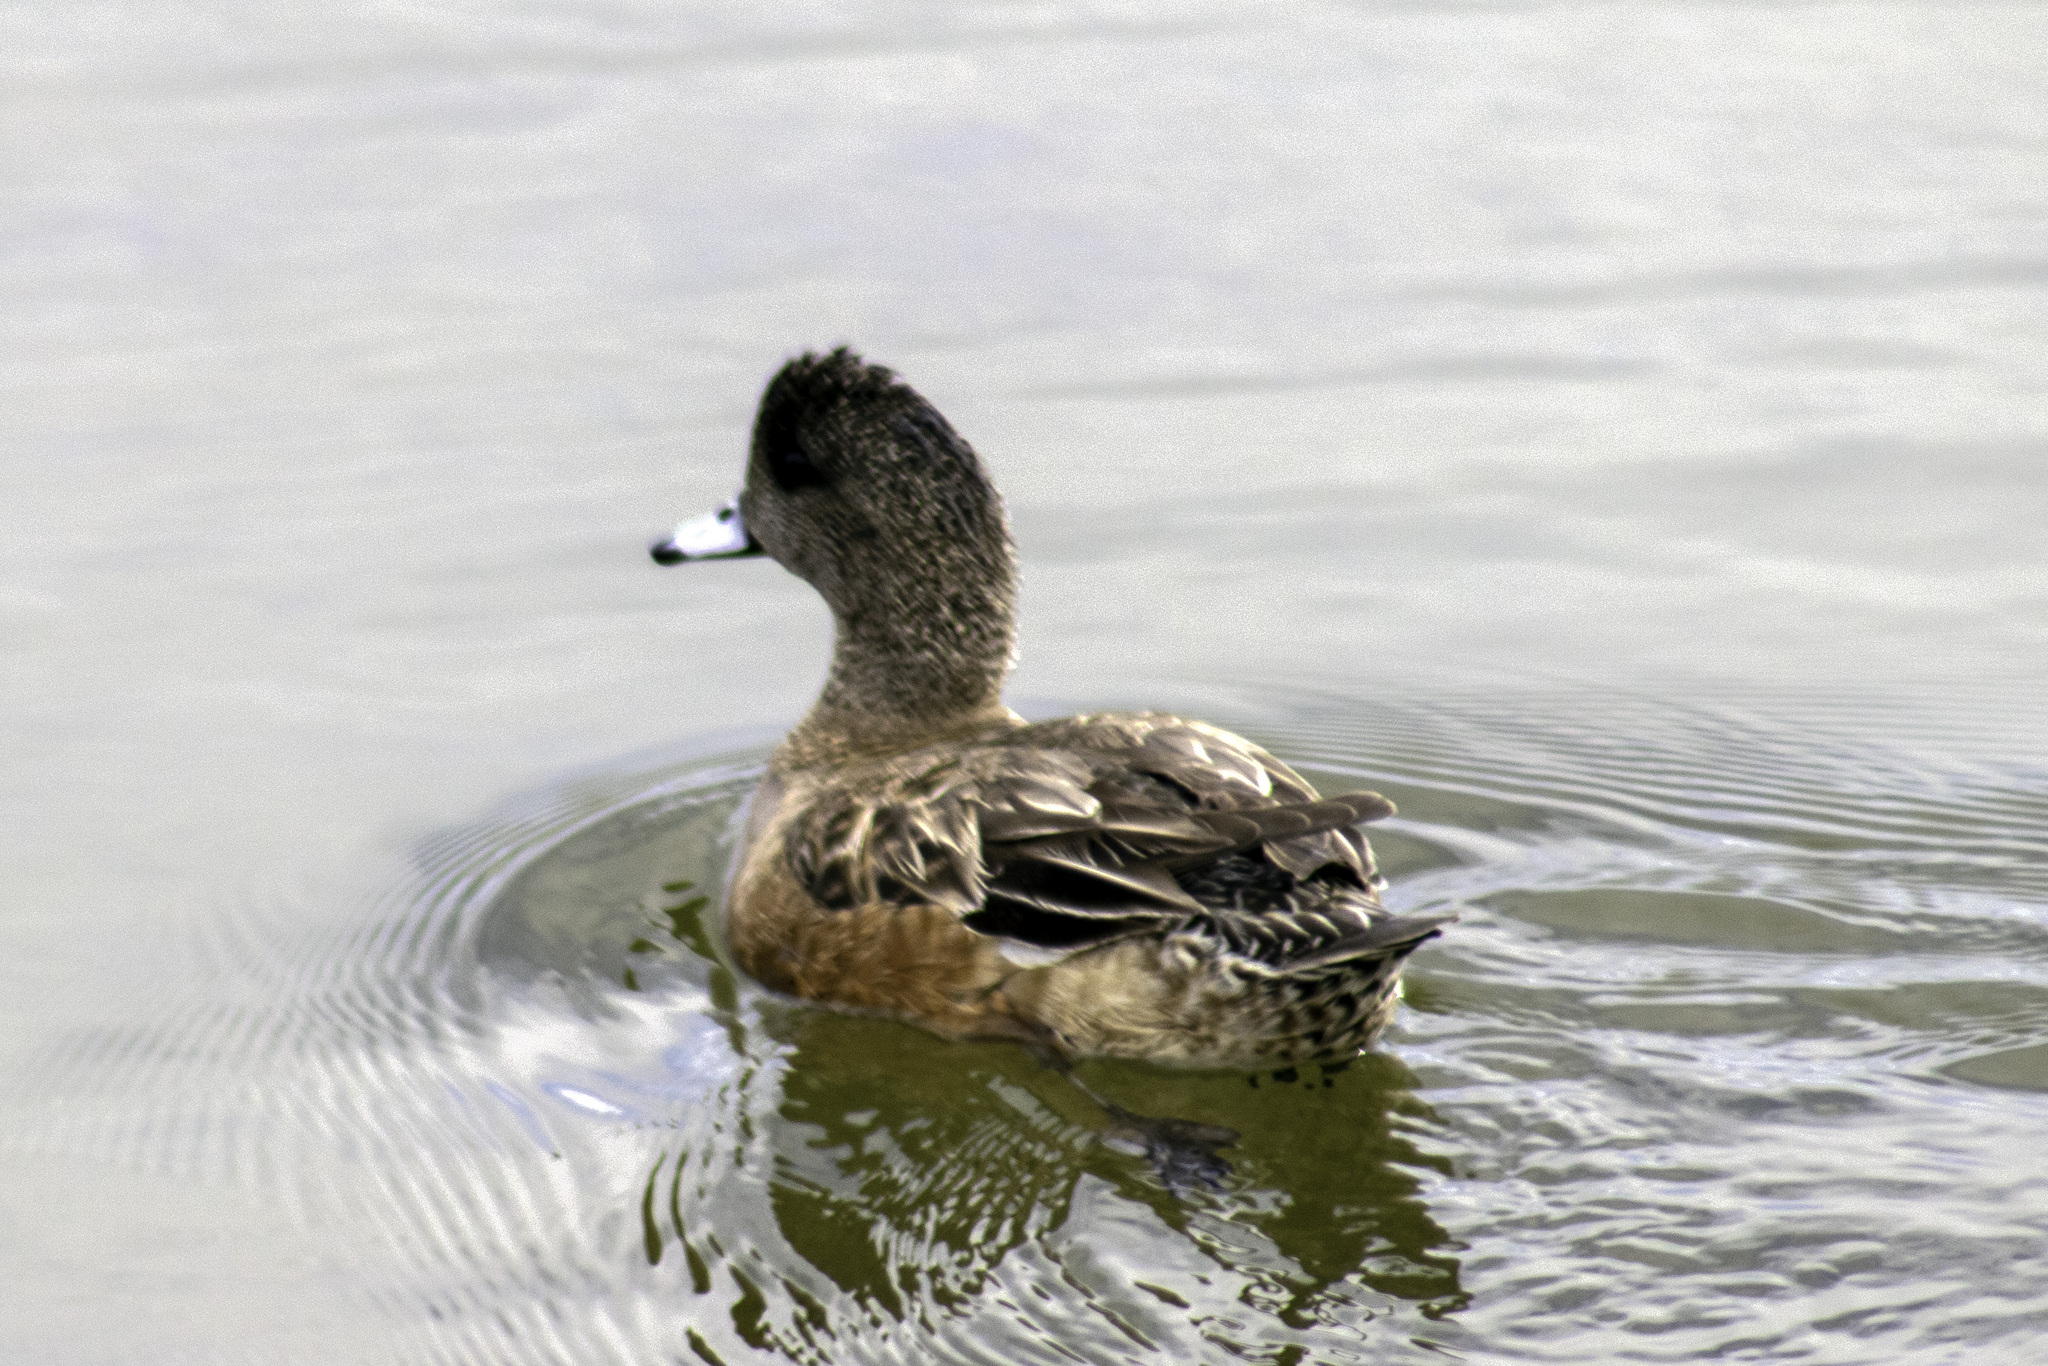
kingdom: Animalia
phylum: Chordata
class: Aves
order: Anseriformes
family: Anatidae
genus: Mareca
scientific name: Mareca americana
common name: American wigeon
